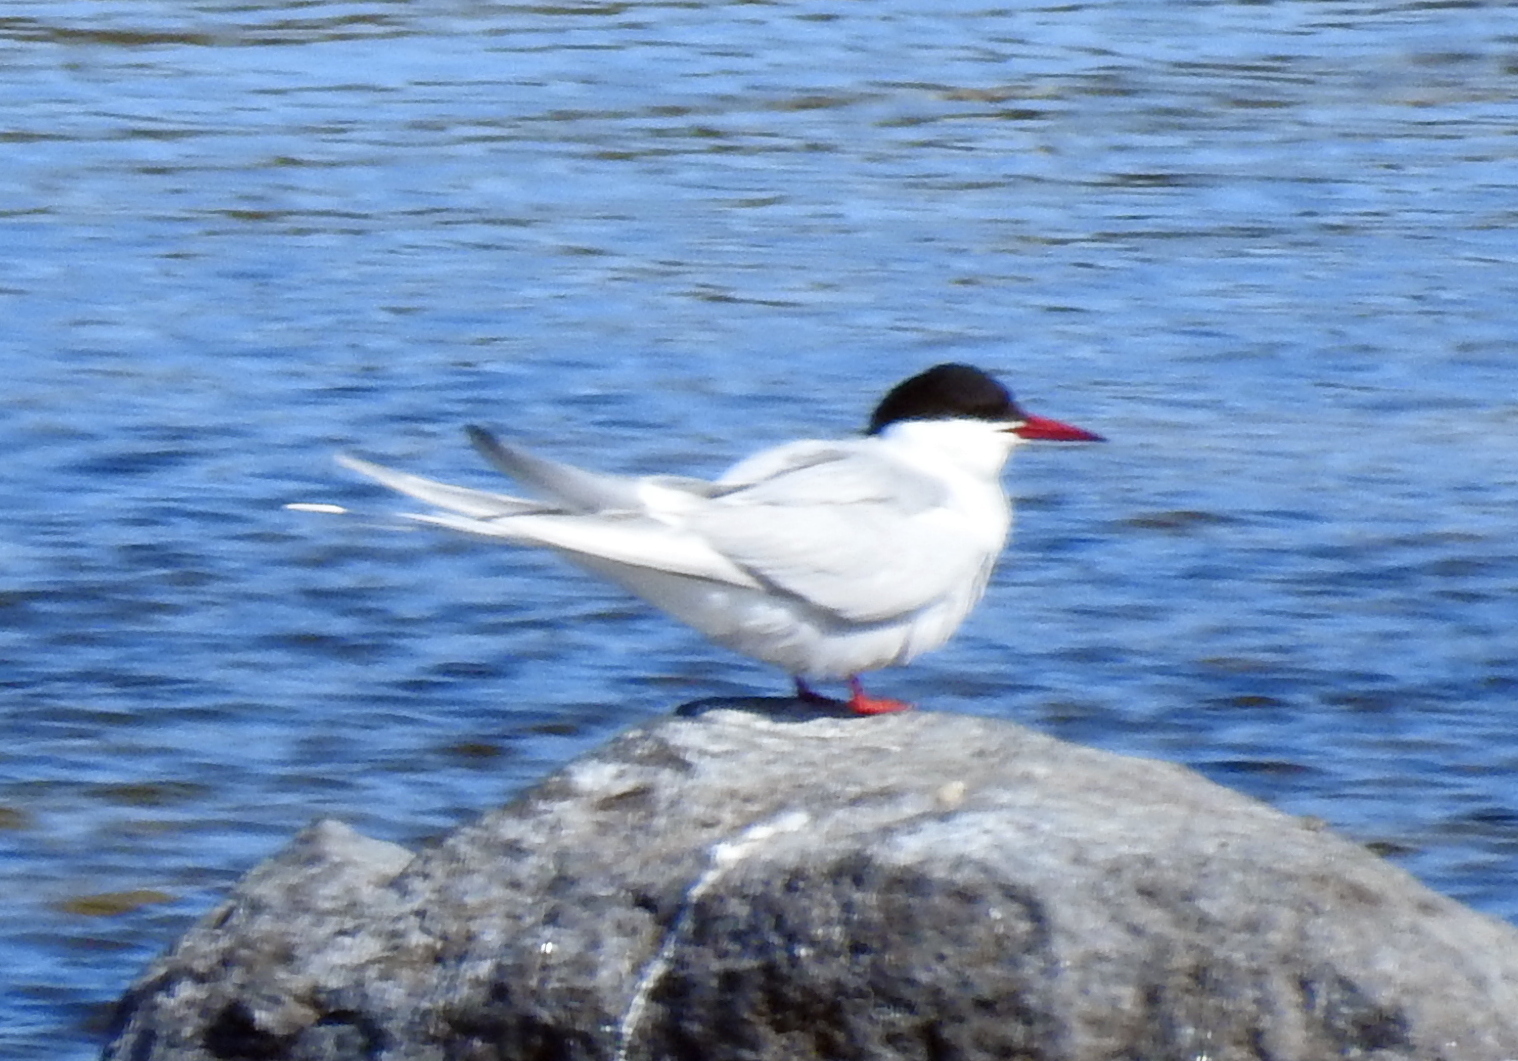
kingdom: Animalia
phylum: Chordata
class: Aves
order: Charadriiformes
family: Laridae
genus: Sterna
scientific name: Sterna paradisaea
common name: Arctic tern
